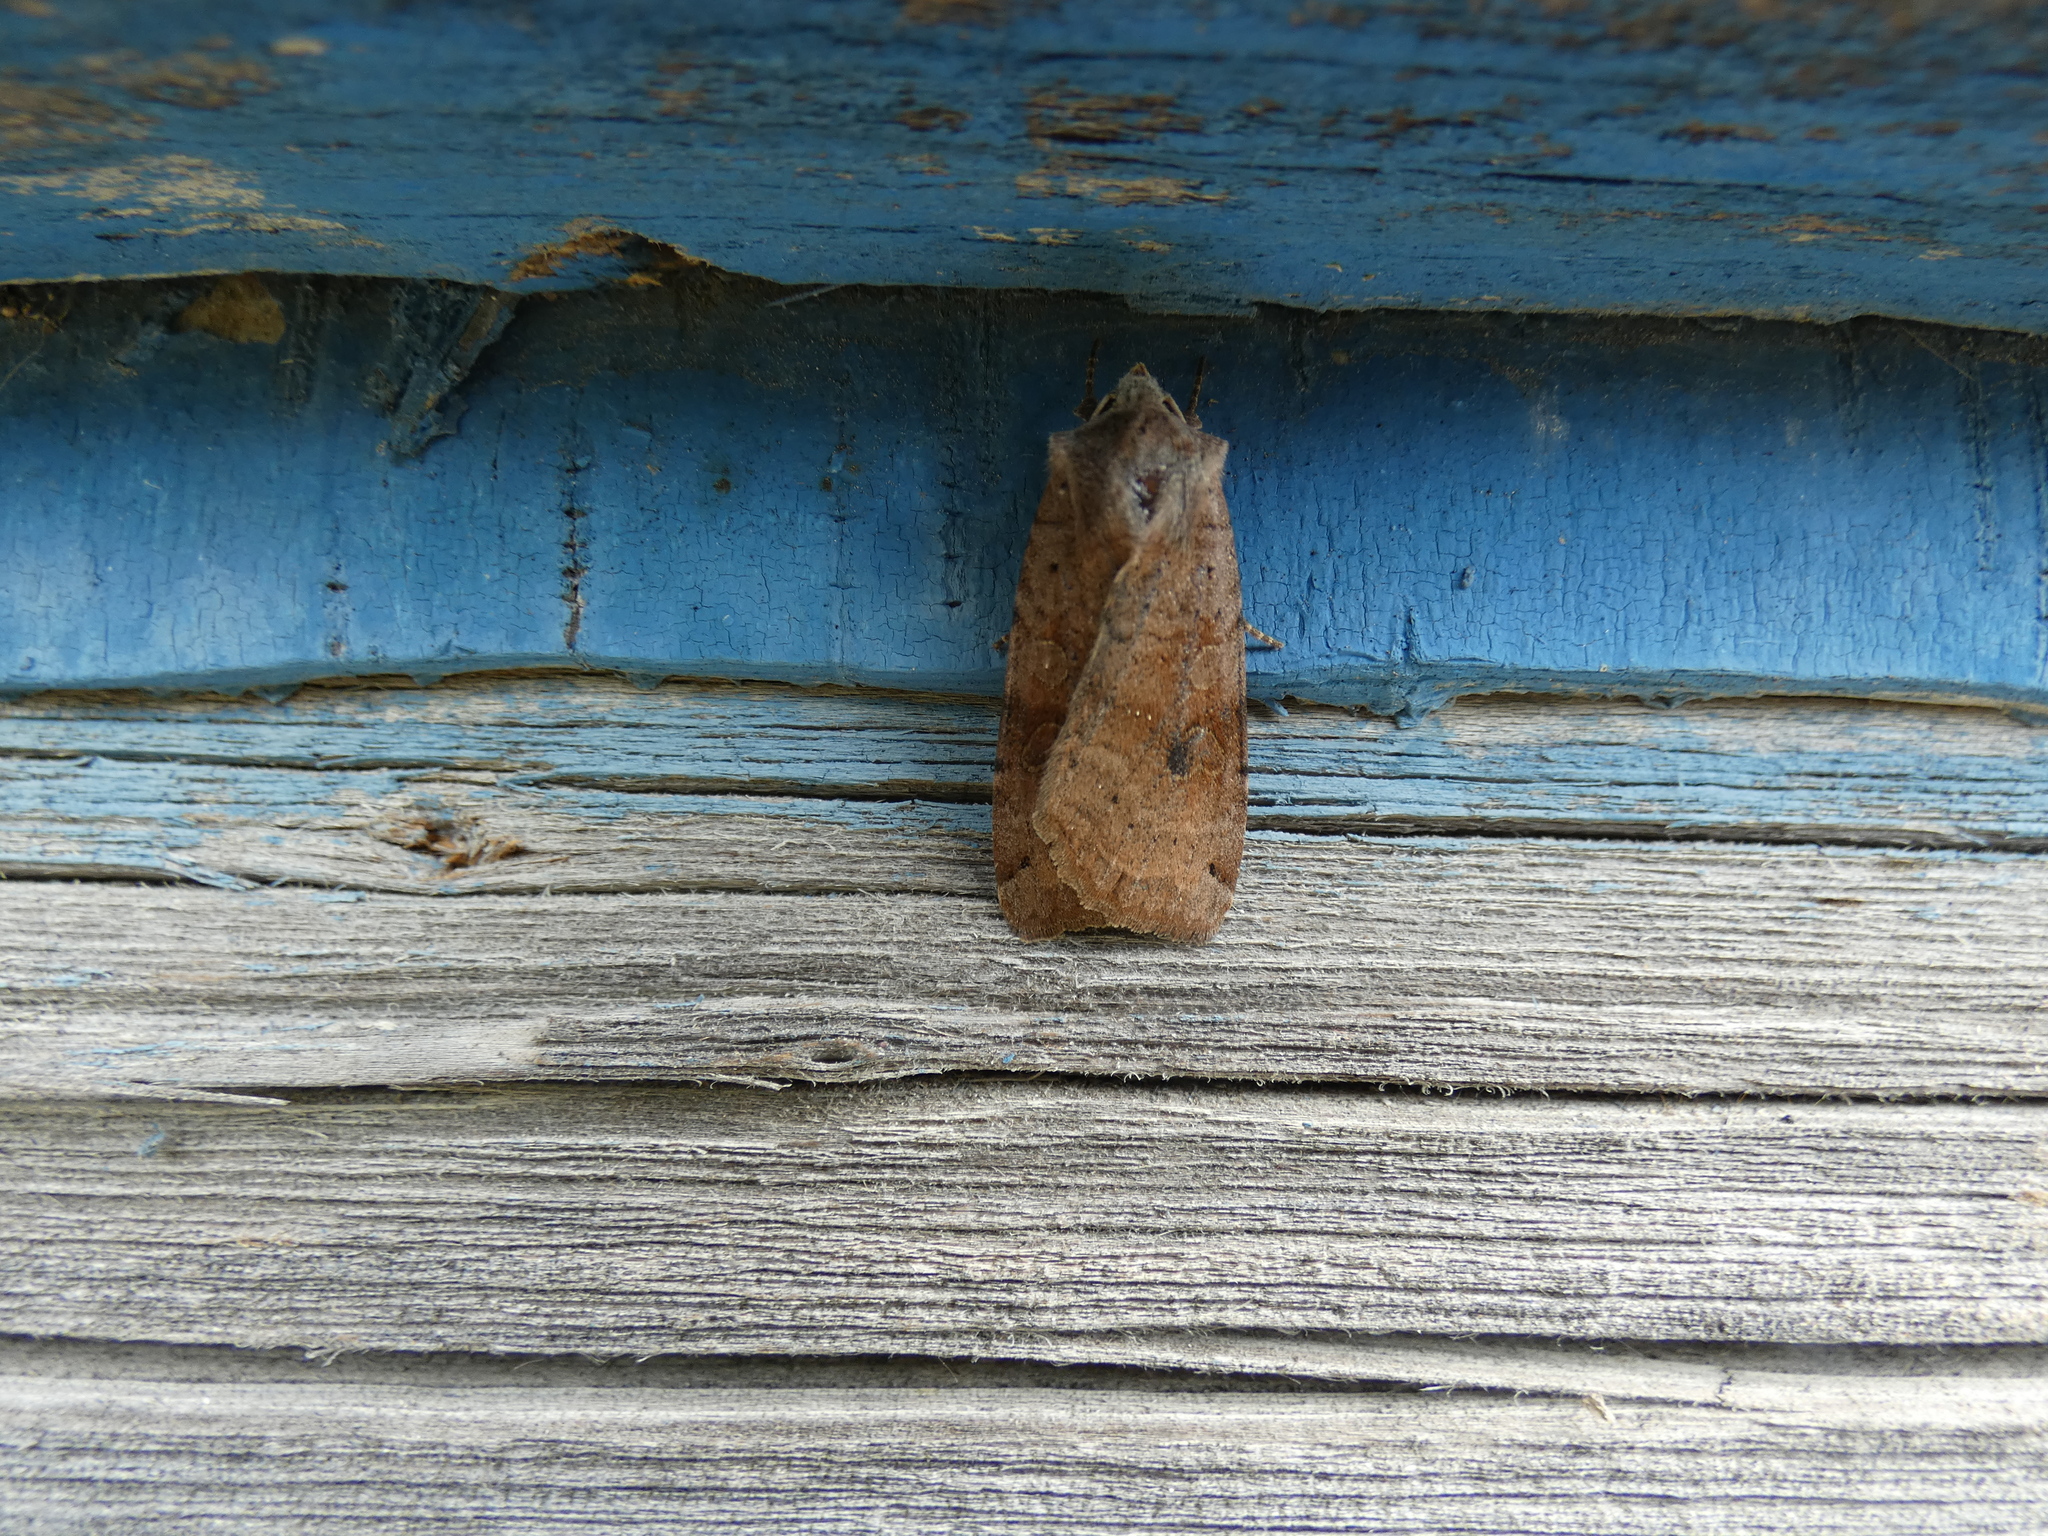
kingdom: Animalia
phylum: Arthropoda
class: Insecta
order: Lepidoptera
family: Noctuidae
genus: Xestia
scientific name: Xestia baja
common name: Dotted clay
